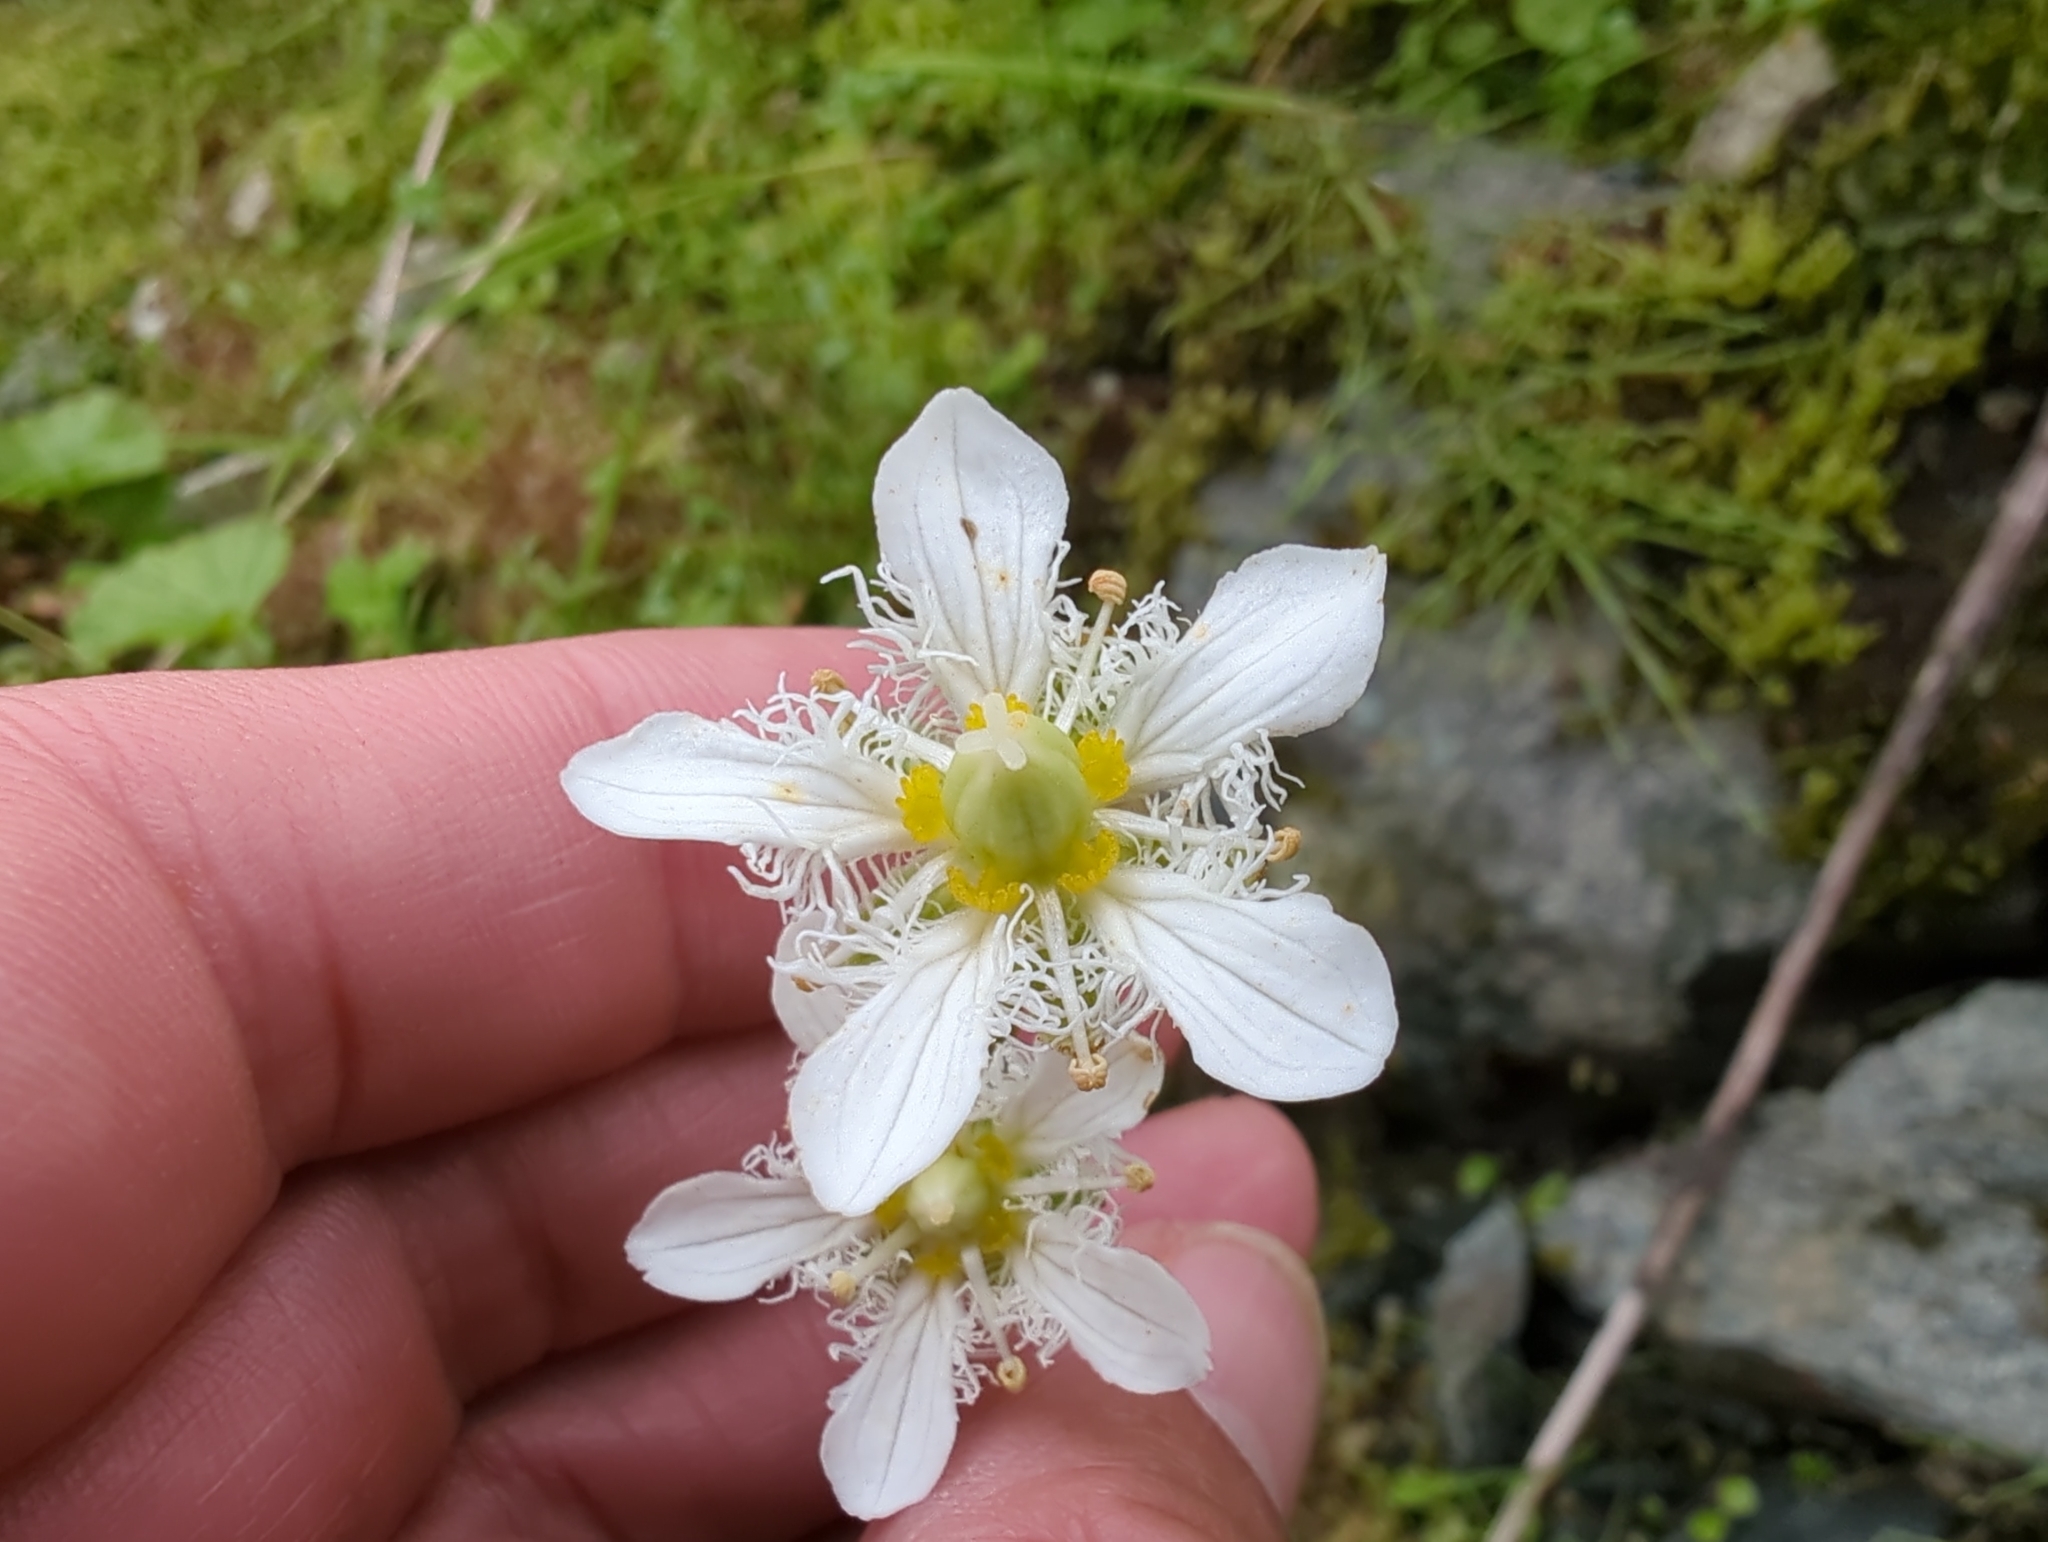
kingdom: Plantae
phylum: Tracheophyta
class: Magnoliopsida
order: Celastrales
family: Parnassiaceae
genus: Parnassia
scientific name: Parnassia fimbriata
